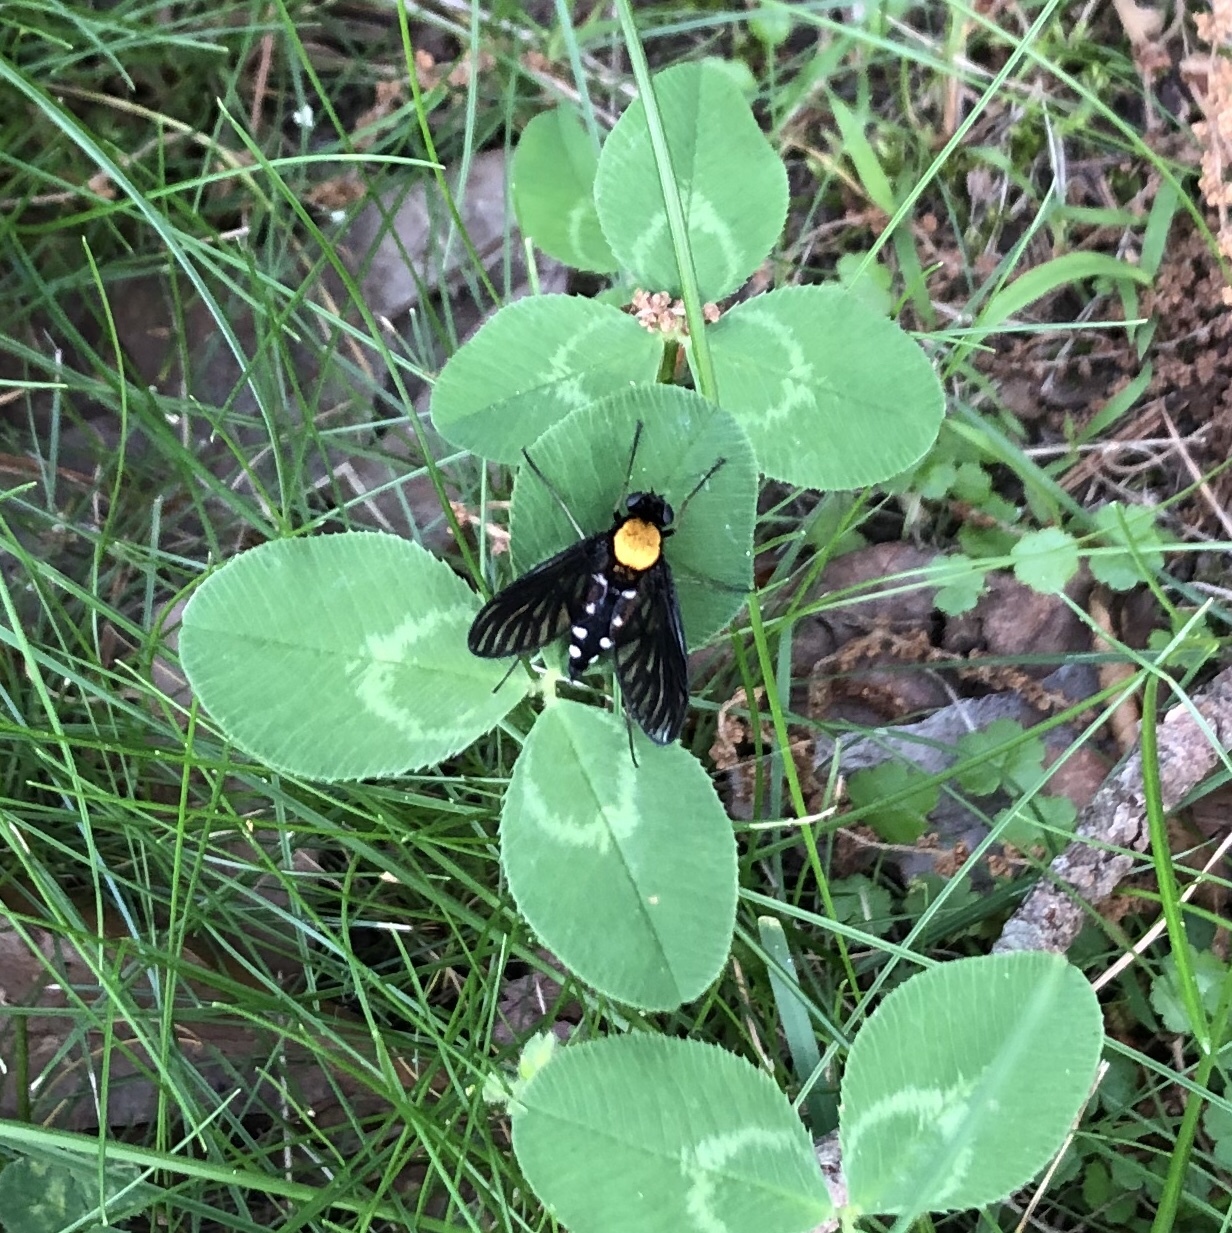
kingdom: Animalia
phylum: Arthropoda
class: Insecta
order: Diptera
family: Rhagionidae
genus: Chrysopilus
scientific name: Chrysopilus thoracicus
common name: Golden-backed snipe fly
